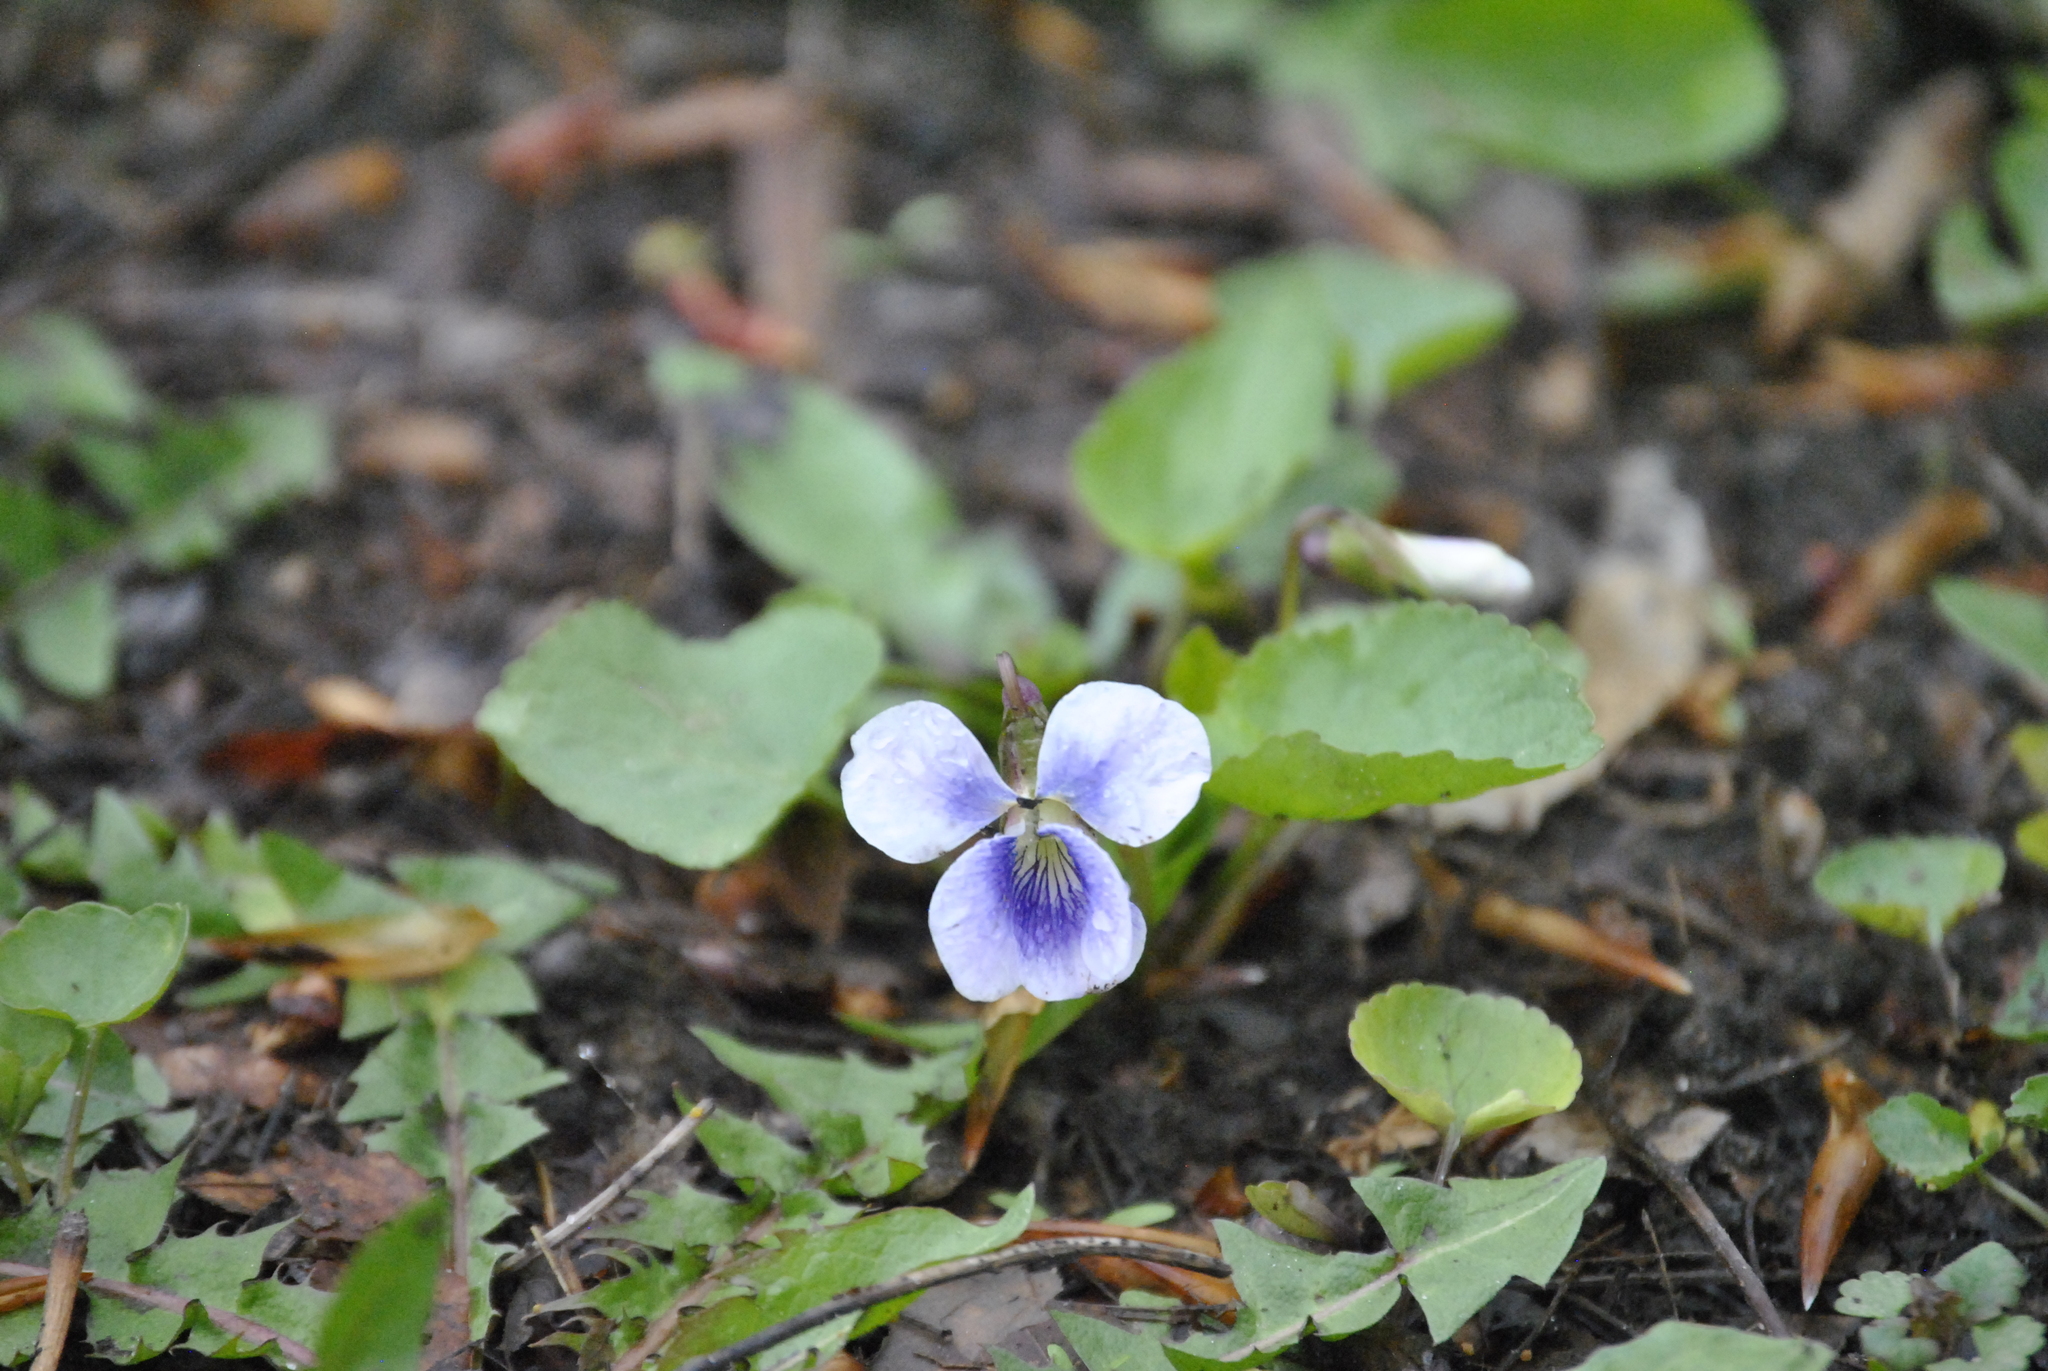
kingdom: Plantae
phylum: Tracheophyta
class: Magnoliopsida
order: Malpighiales
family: Violaceae
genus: Viola
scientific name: Viola sororia
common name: Dooryard violet
